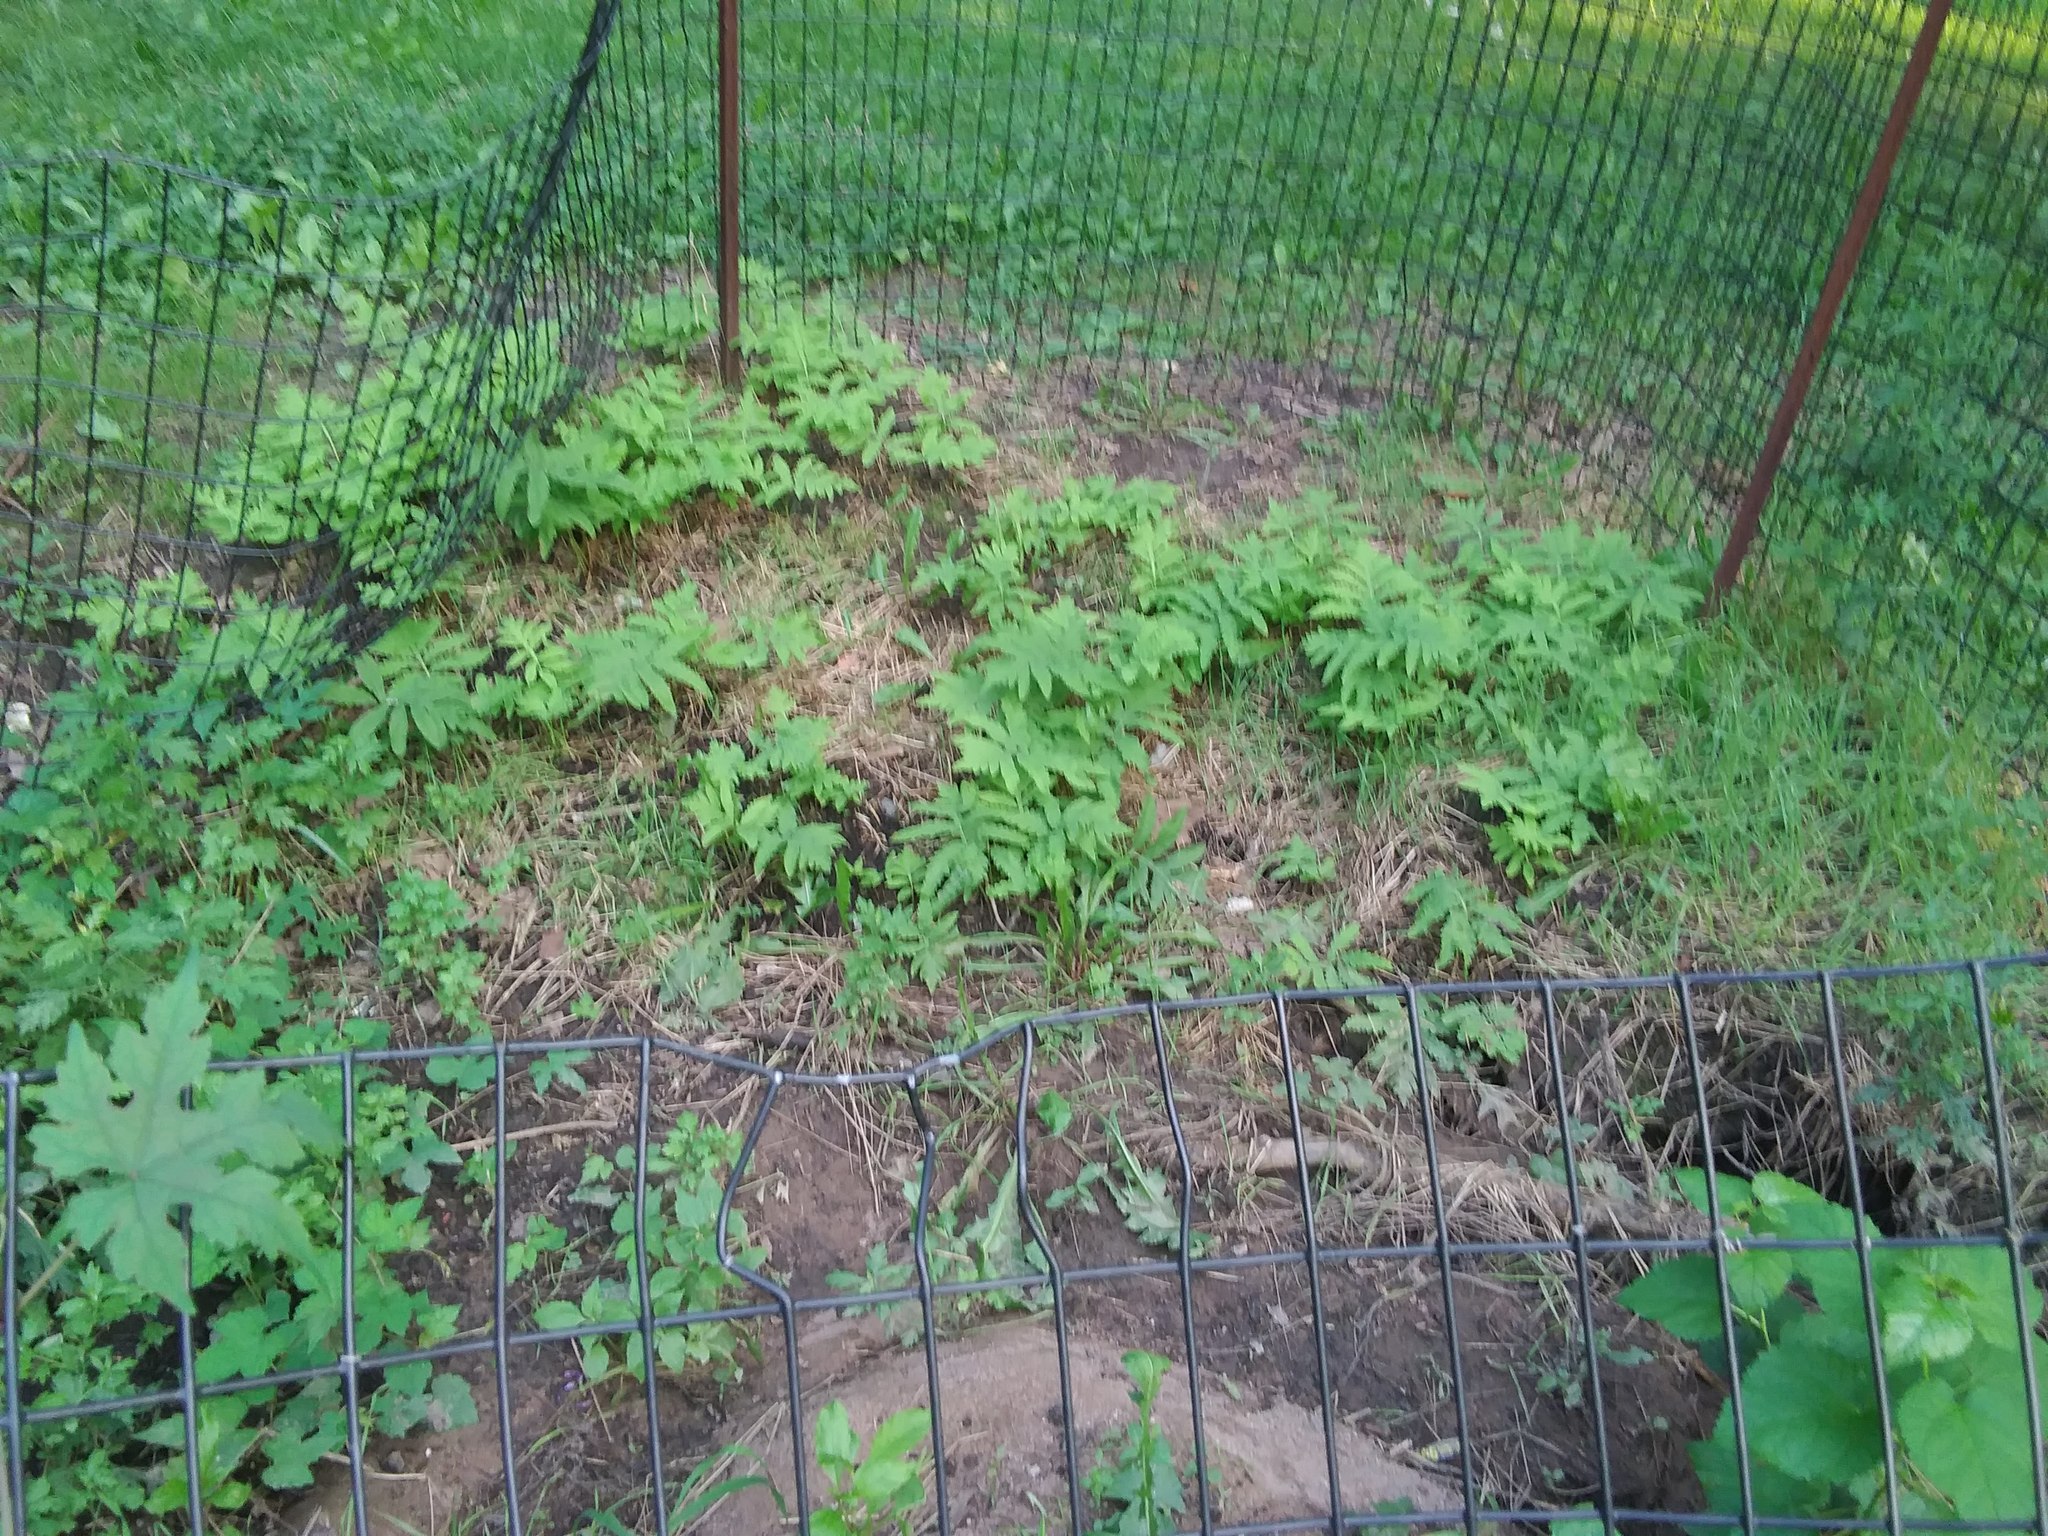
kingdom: Plantae
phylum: Tracheophyta
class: Polypodiopsida
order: Polypodiales
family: Onocleaceae
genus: Onoclea
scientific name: Onoclea sensibilis
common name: Sensitive fern
